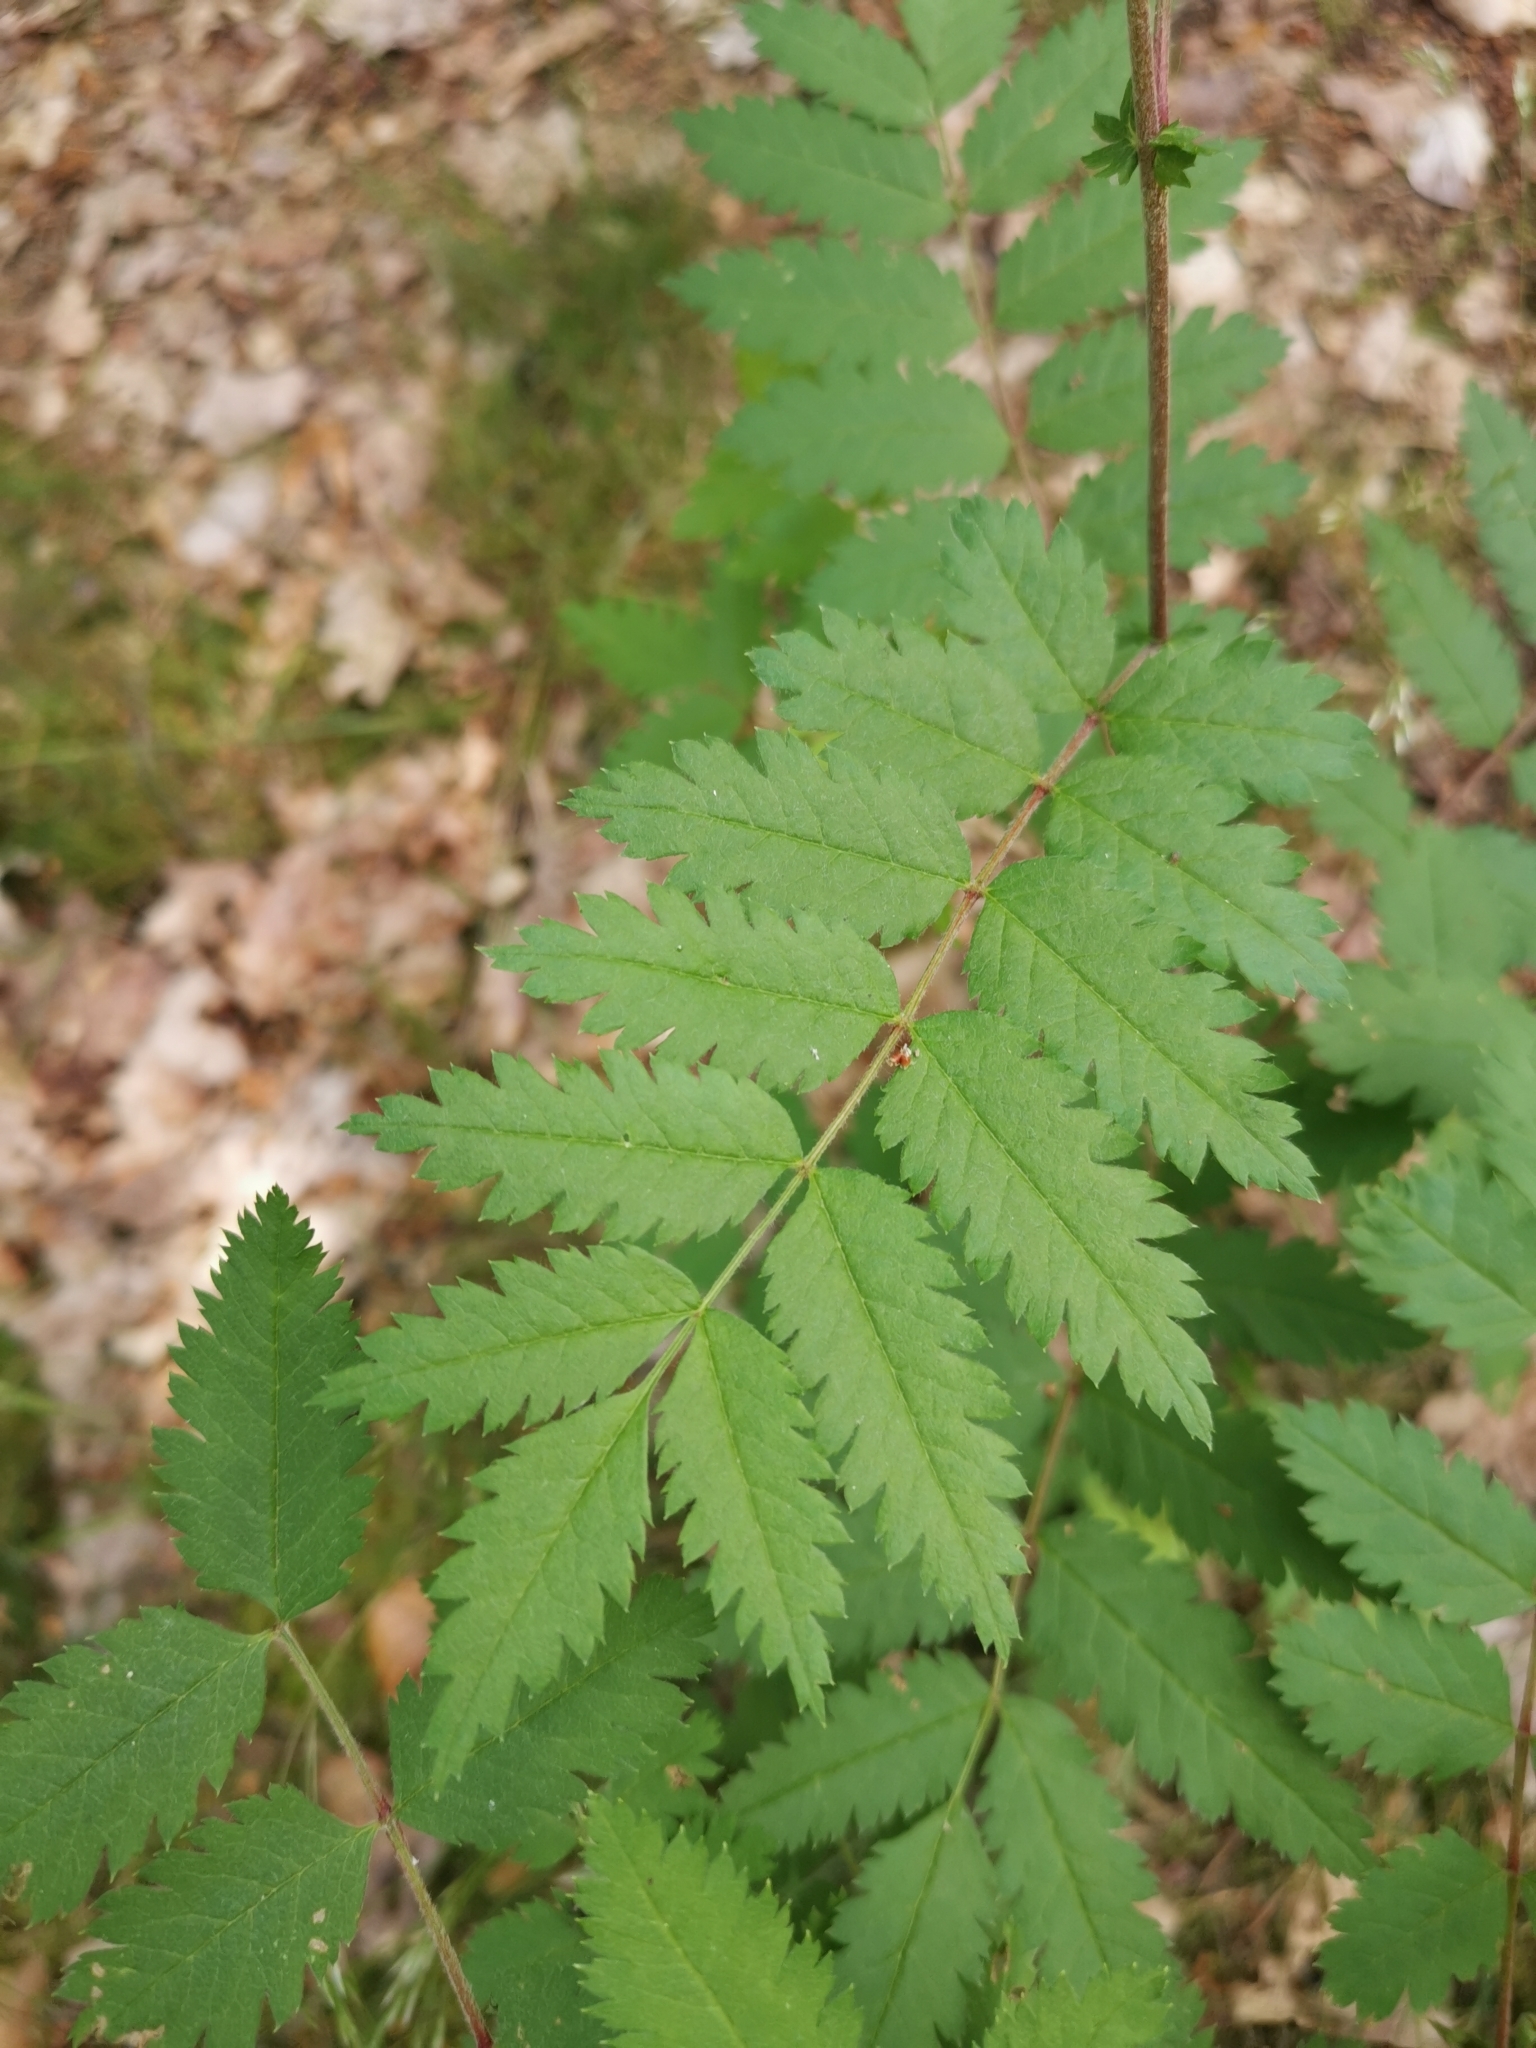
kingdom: Plantae
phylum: Tracheophyta
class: Magnoliopsida
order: Rosales
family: Rosaceae
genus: Sorbus
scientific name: Sorbus aucuparia
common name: Rowan
